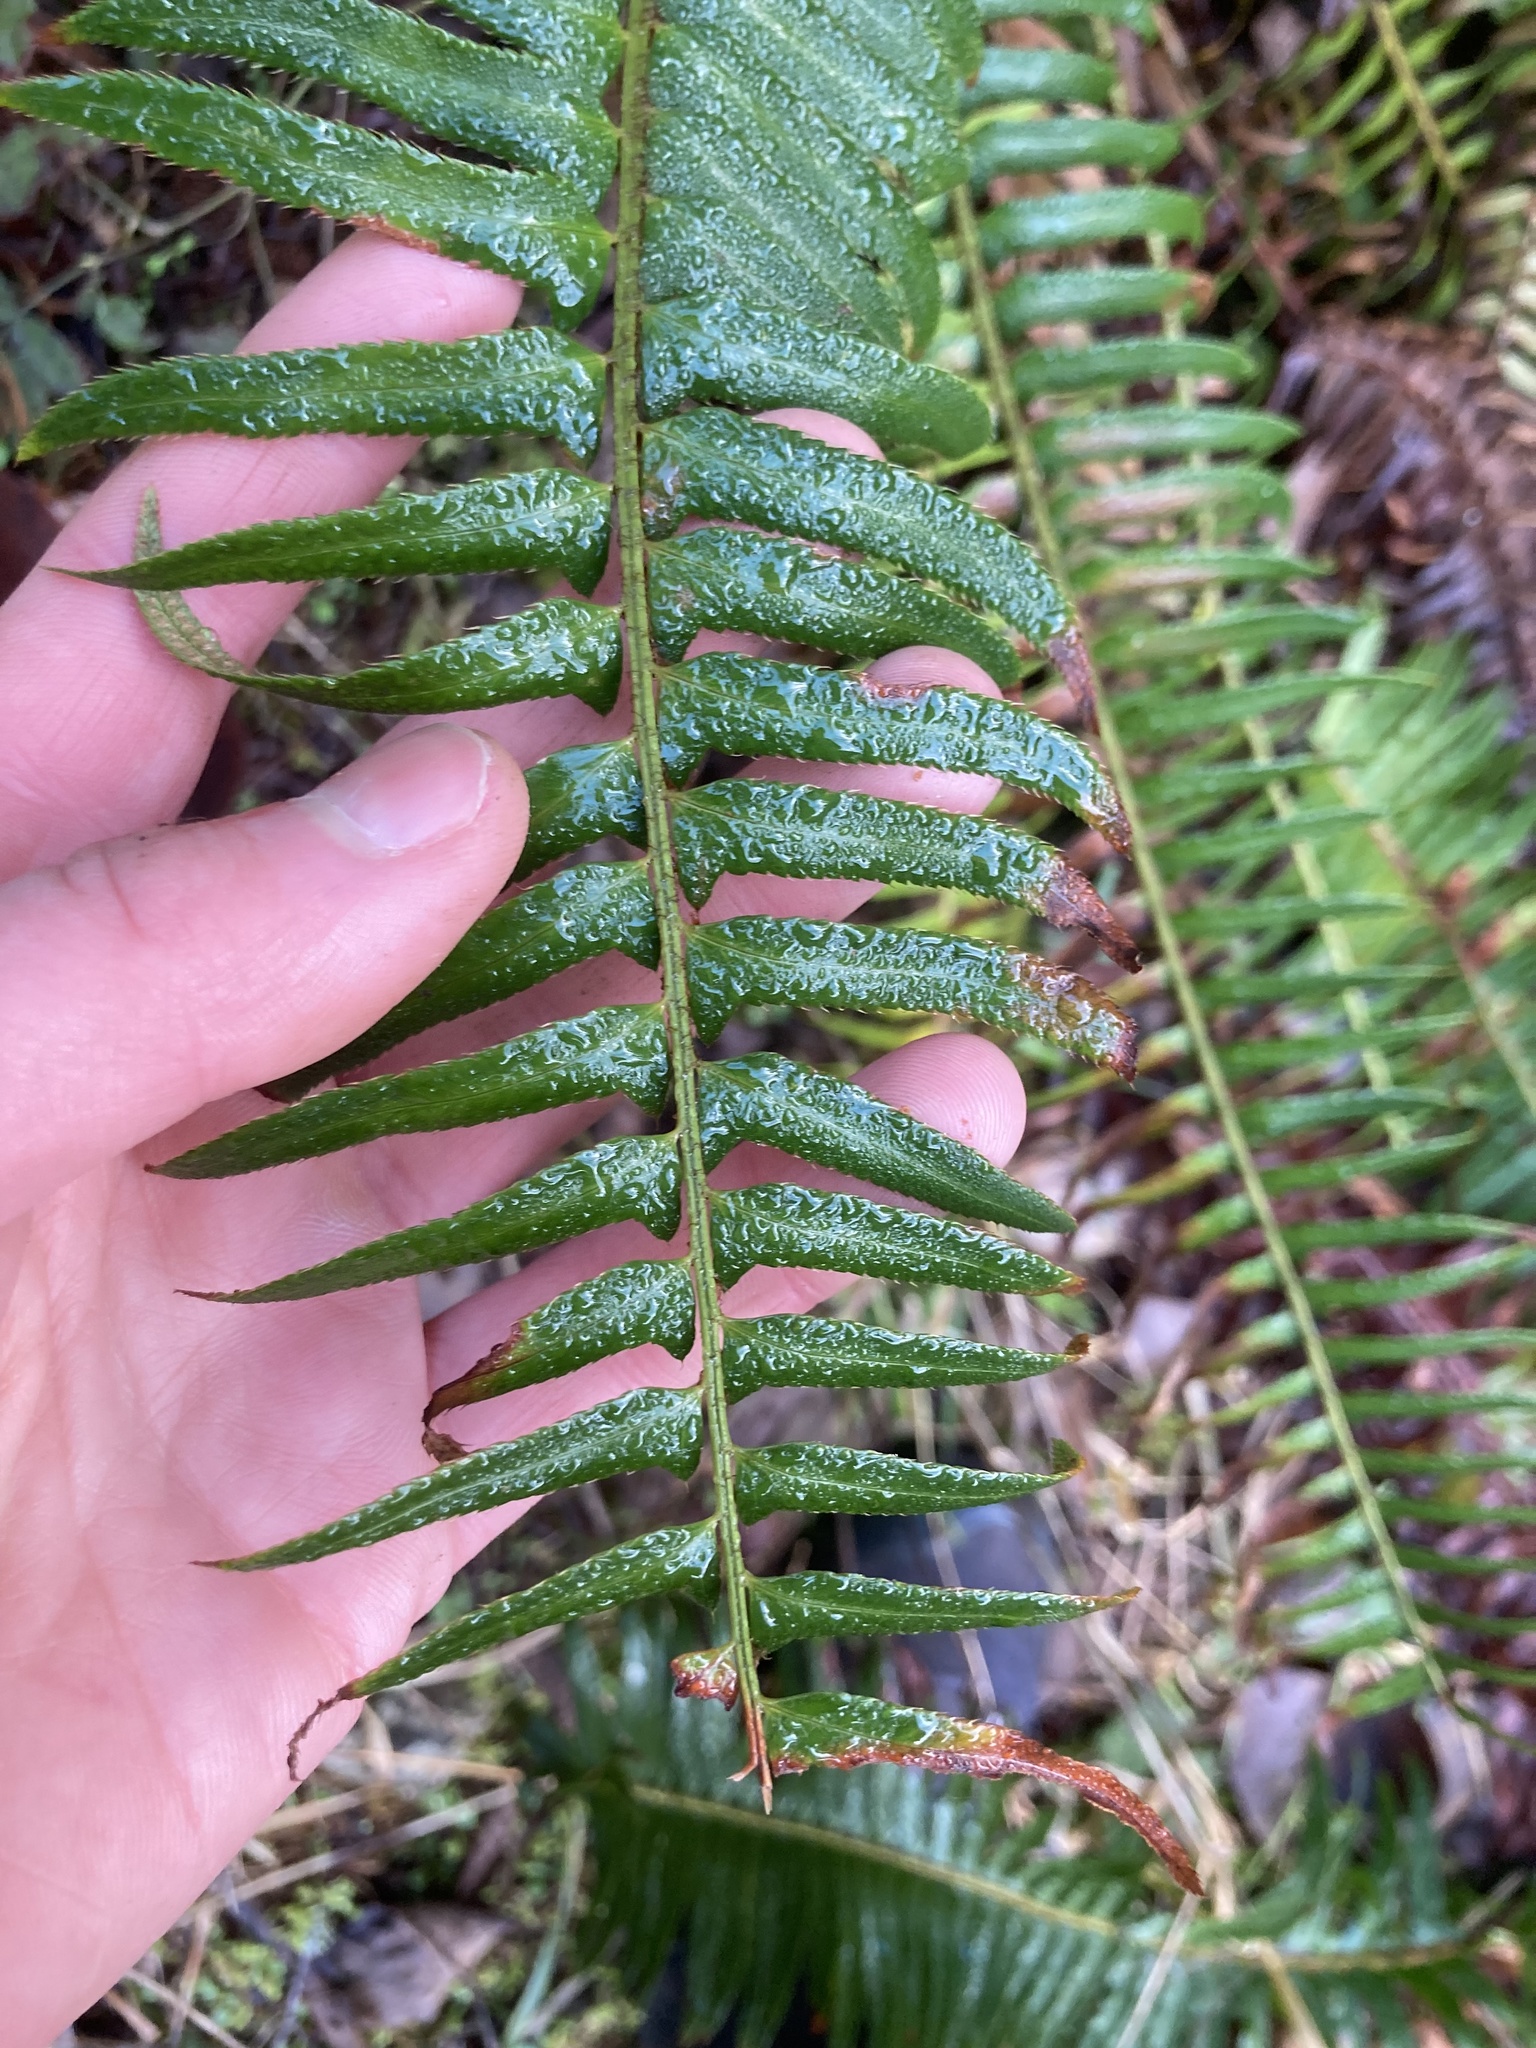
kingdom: Plantae
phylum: Tracheophyta
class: Polypodiopsida
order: Polypodiales
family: Dryopteridaceae
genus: Polystichum
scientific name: Polystichum munitum
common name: Western sword-fern
